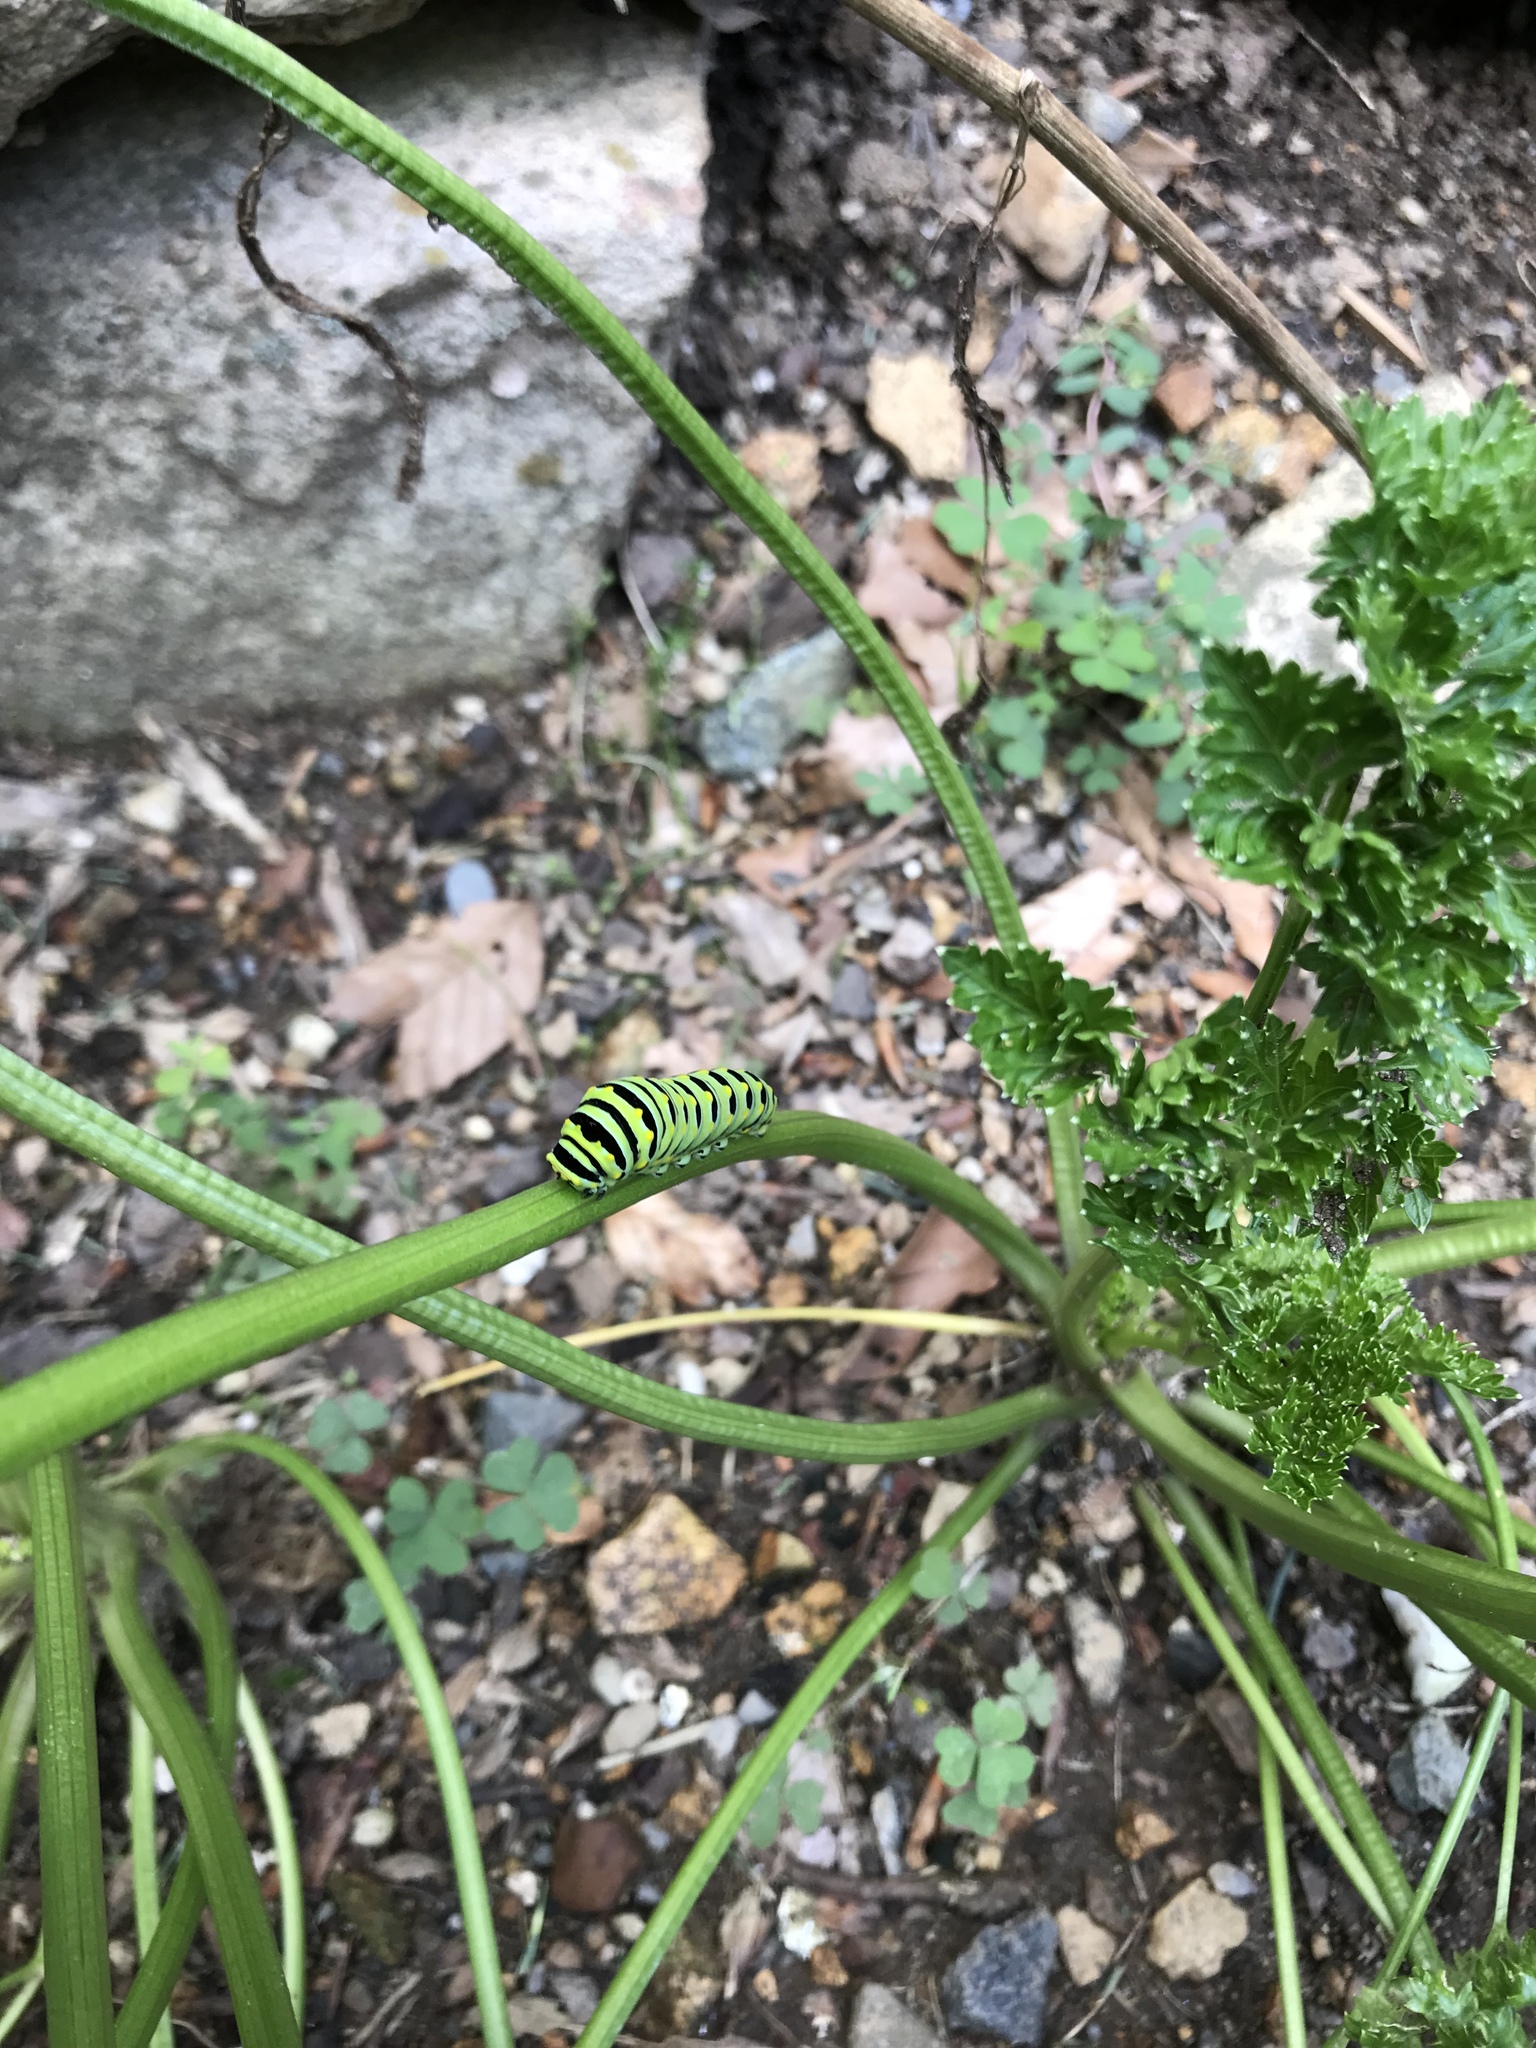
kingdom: Animalia
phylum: Arthropoda
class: Insecta
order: Lepidoptera
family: Papilionidae
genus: Papilio
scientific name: Papilio polyxenes
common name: Black swallowtail
